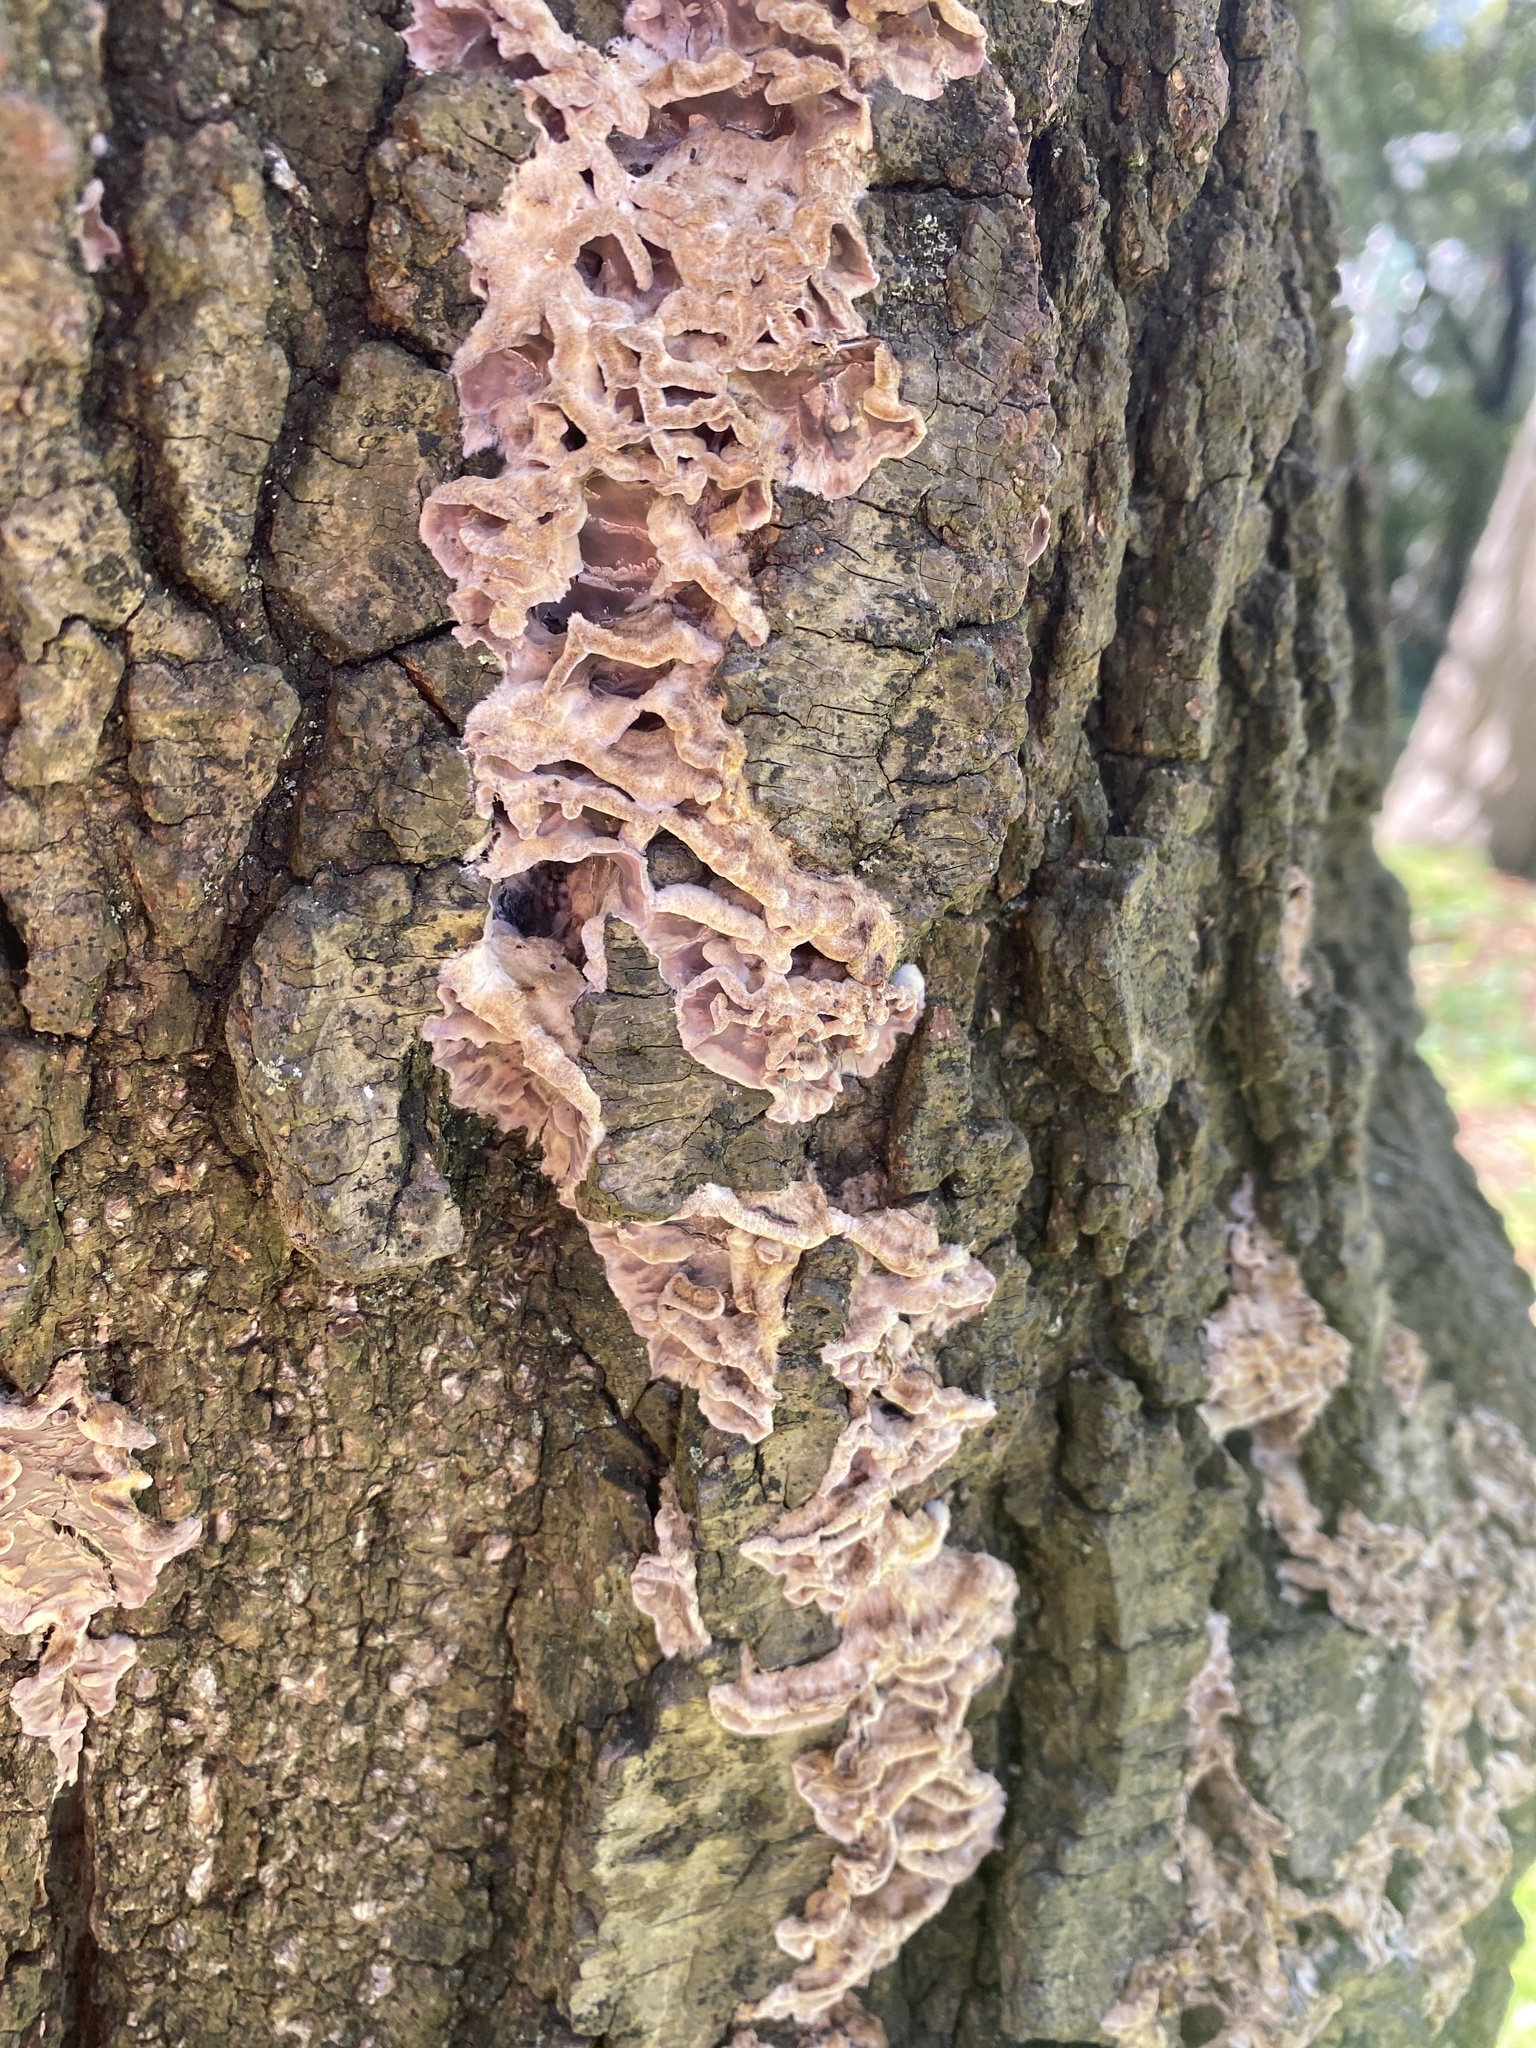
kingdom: Fungi
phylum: Basidiomycota
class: Agaricomycetes
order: Agaricales
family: Cyphellaceae
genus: Chondrostereum
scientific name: Chondrostereum purpureum
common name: Silver leaf disease
